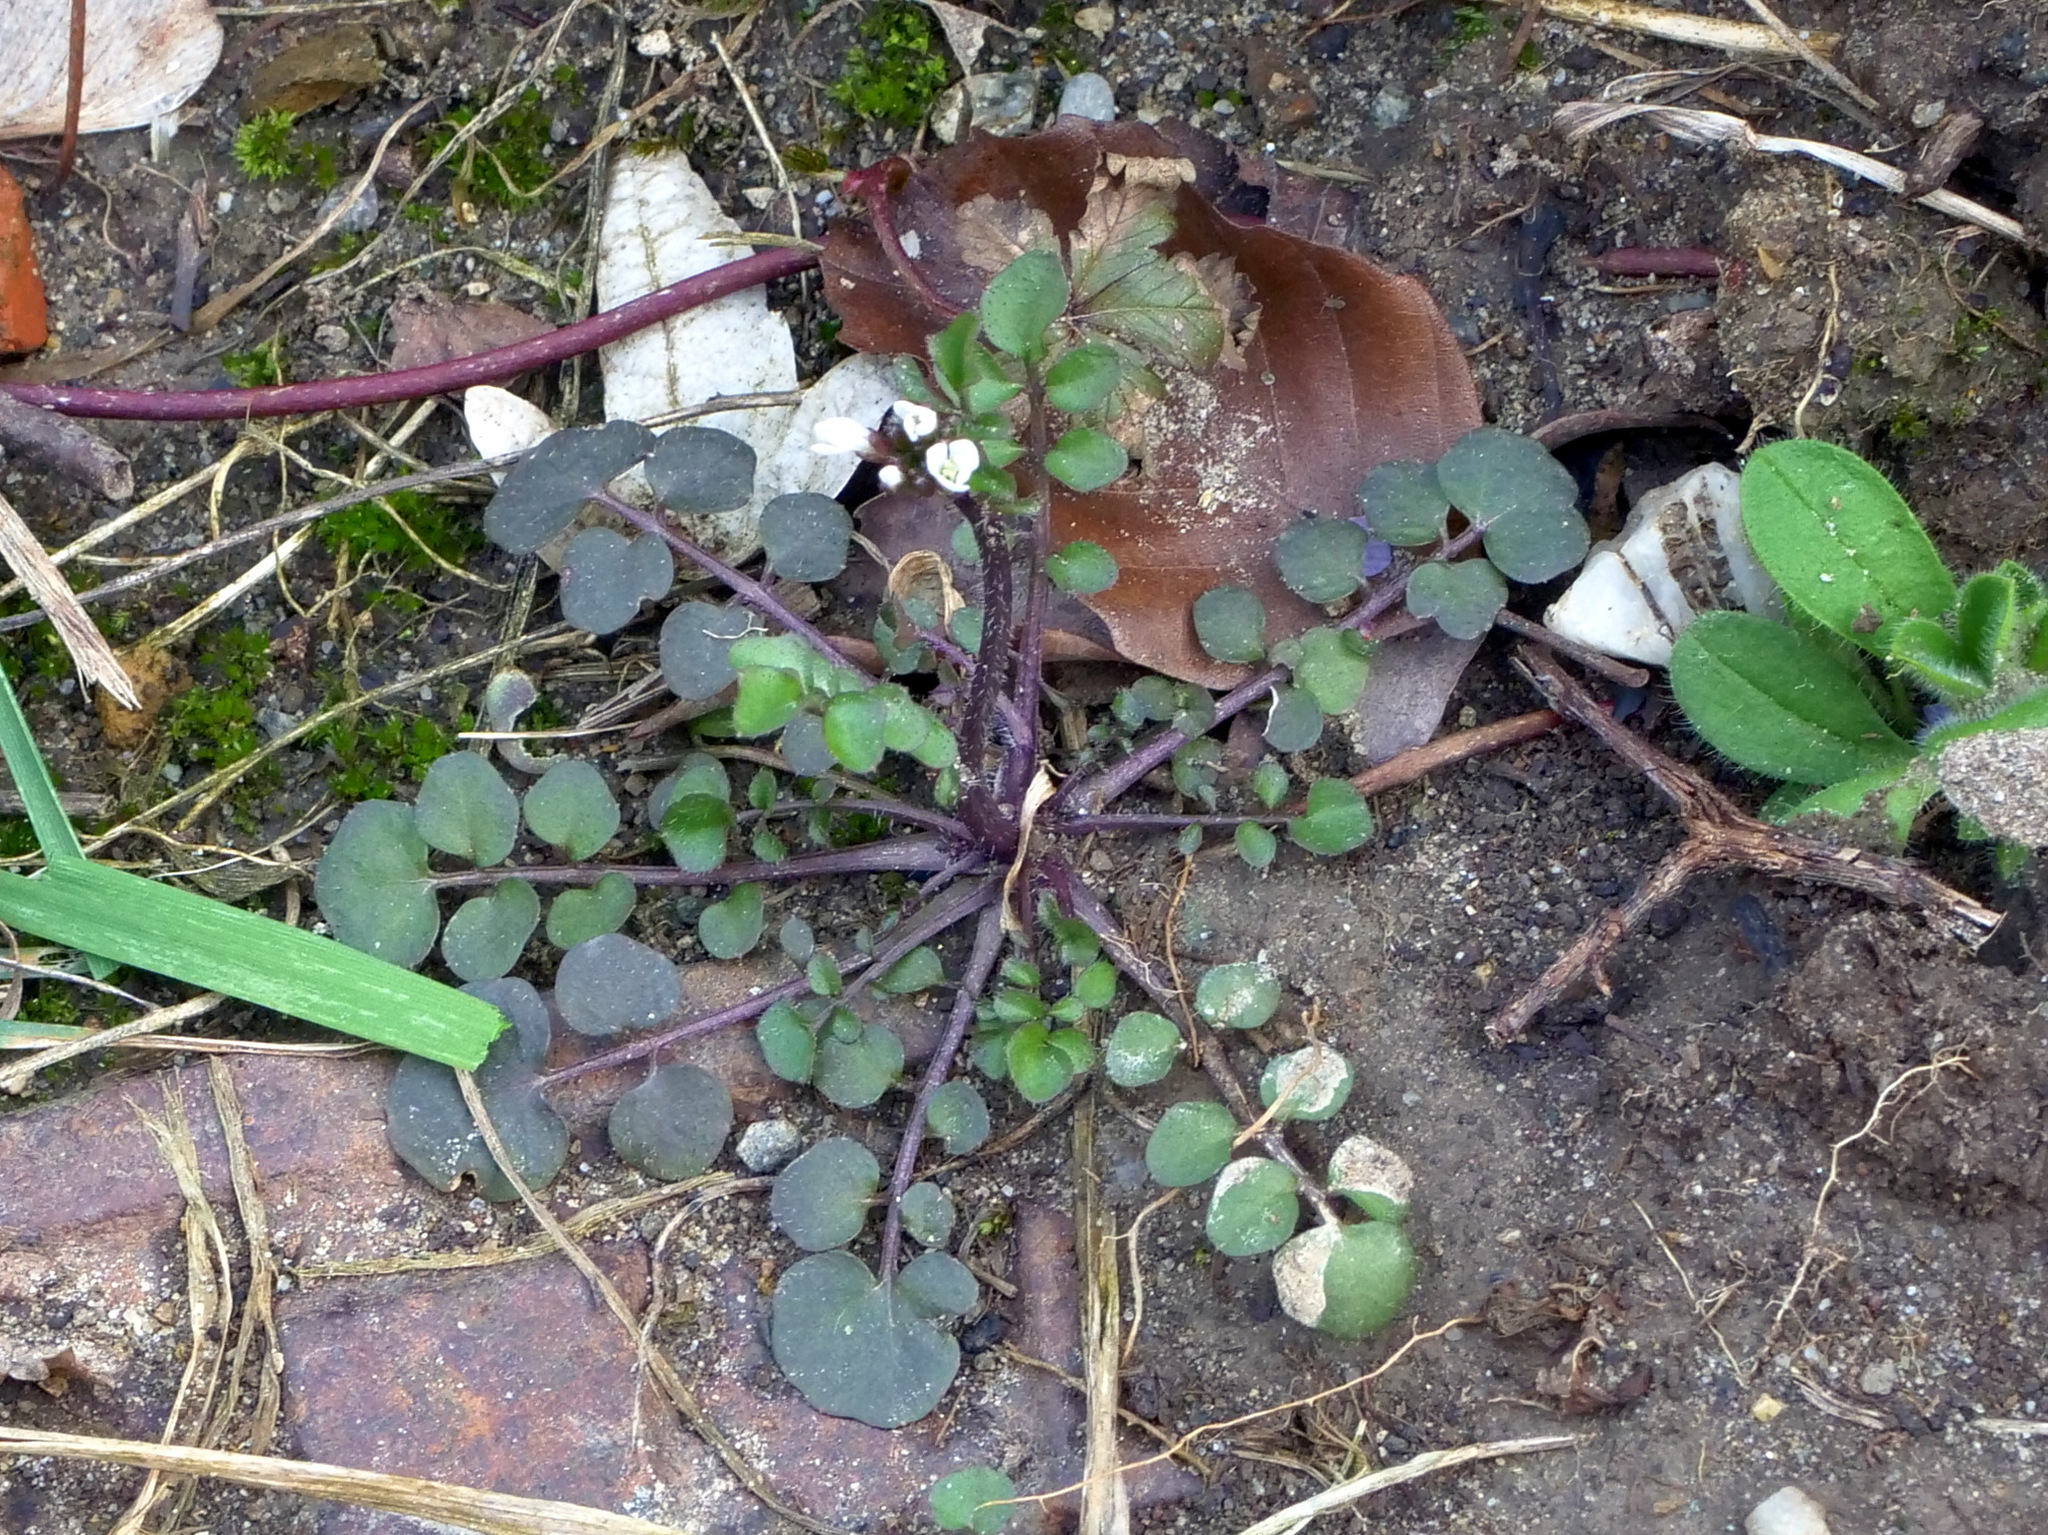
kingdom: Plantae
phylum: Tracheophyta
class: Magnoliopsida
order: Brassicales
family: Brassicaceae
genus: Cardamine
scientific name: Cardamine hirsuta
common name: Hairy bittercress
